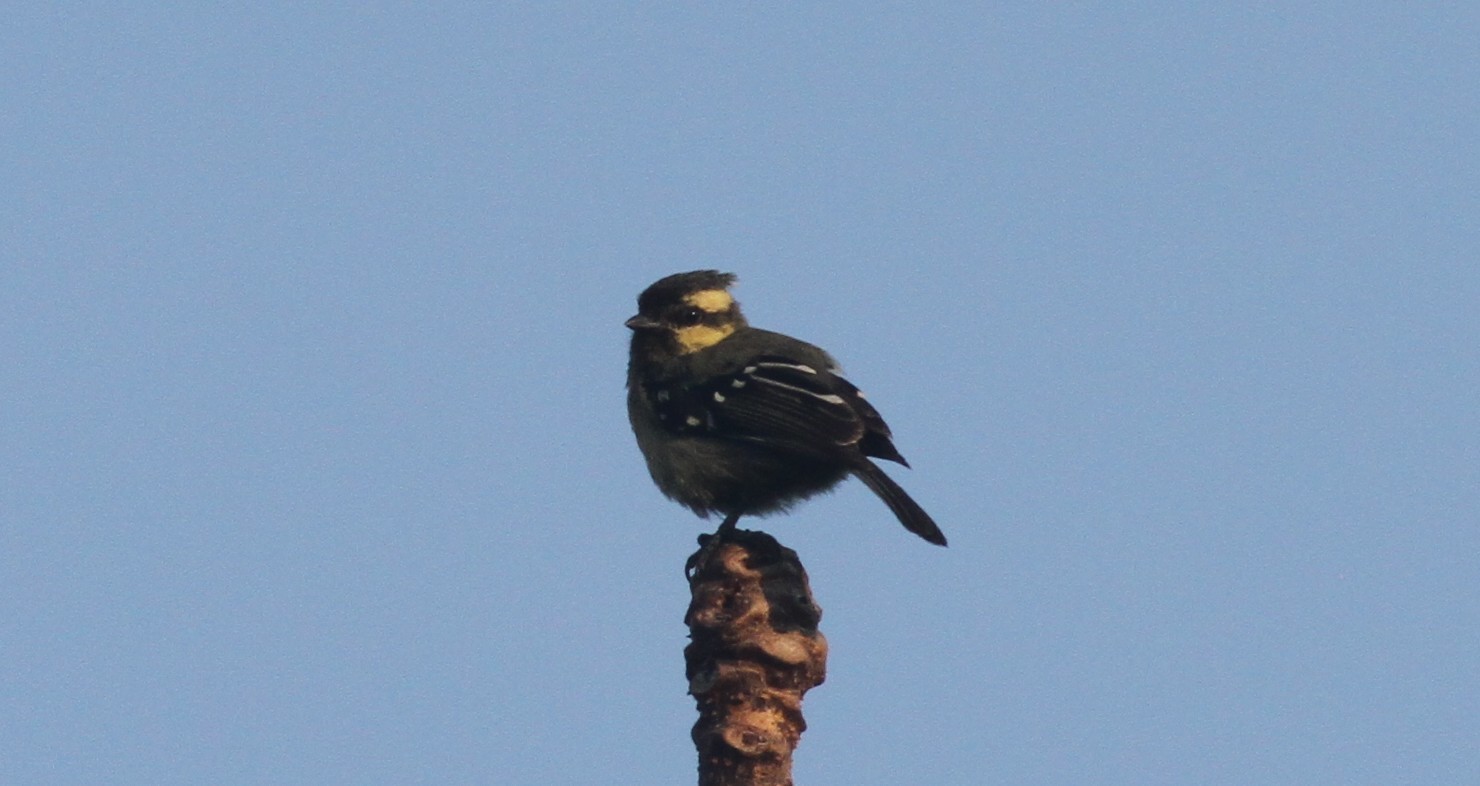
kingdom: Animalia
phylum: Chordata
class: Aves
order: Passeriformes
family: Paridae
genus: Parus
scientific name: Parus aplonotus
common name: Indian black-lored tit
